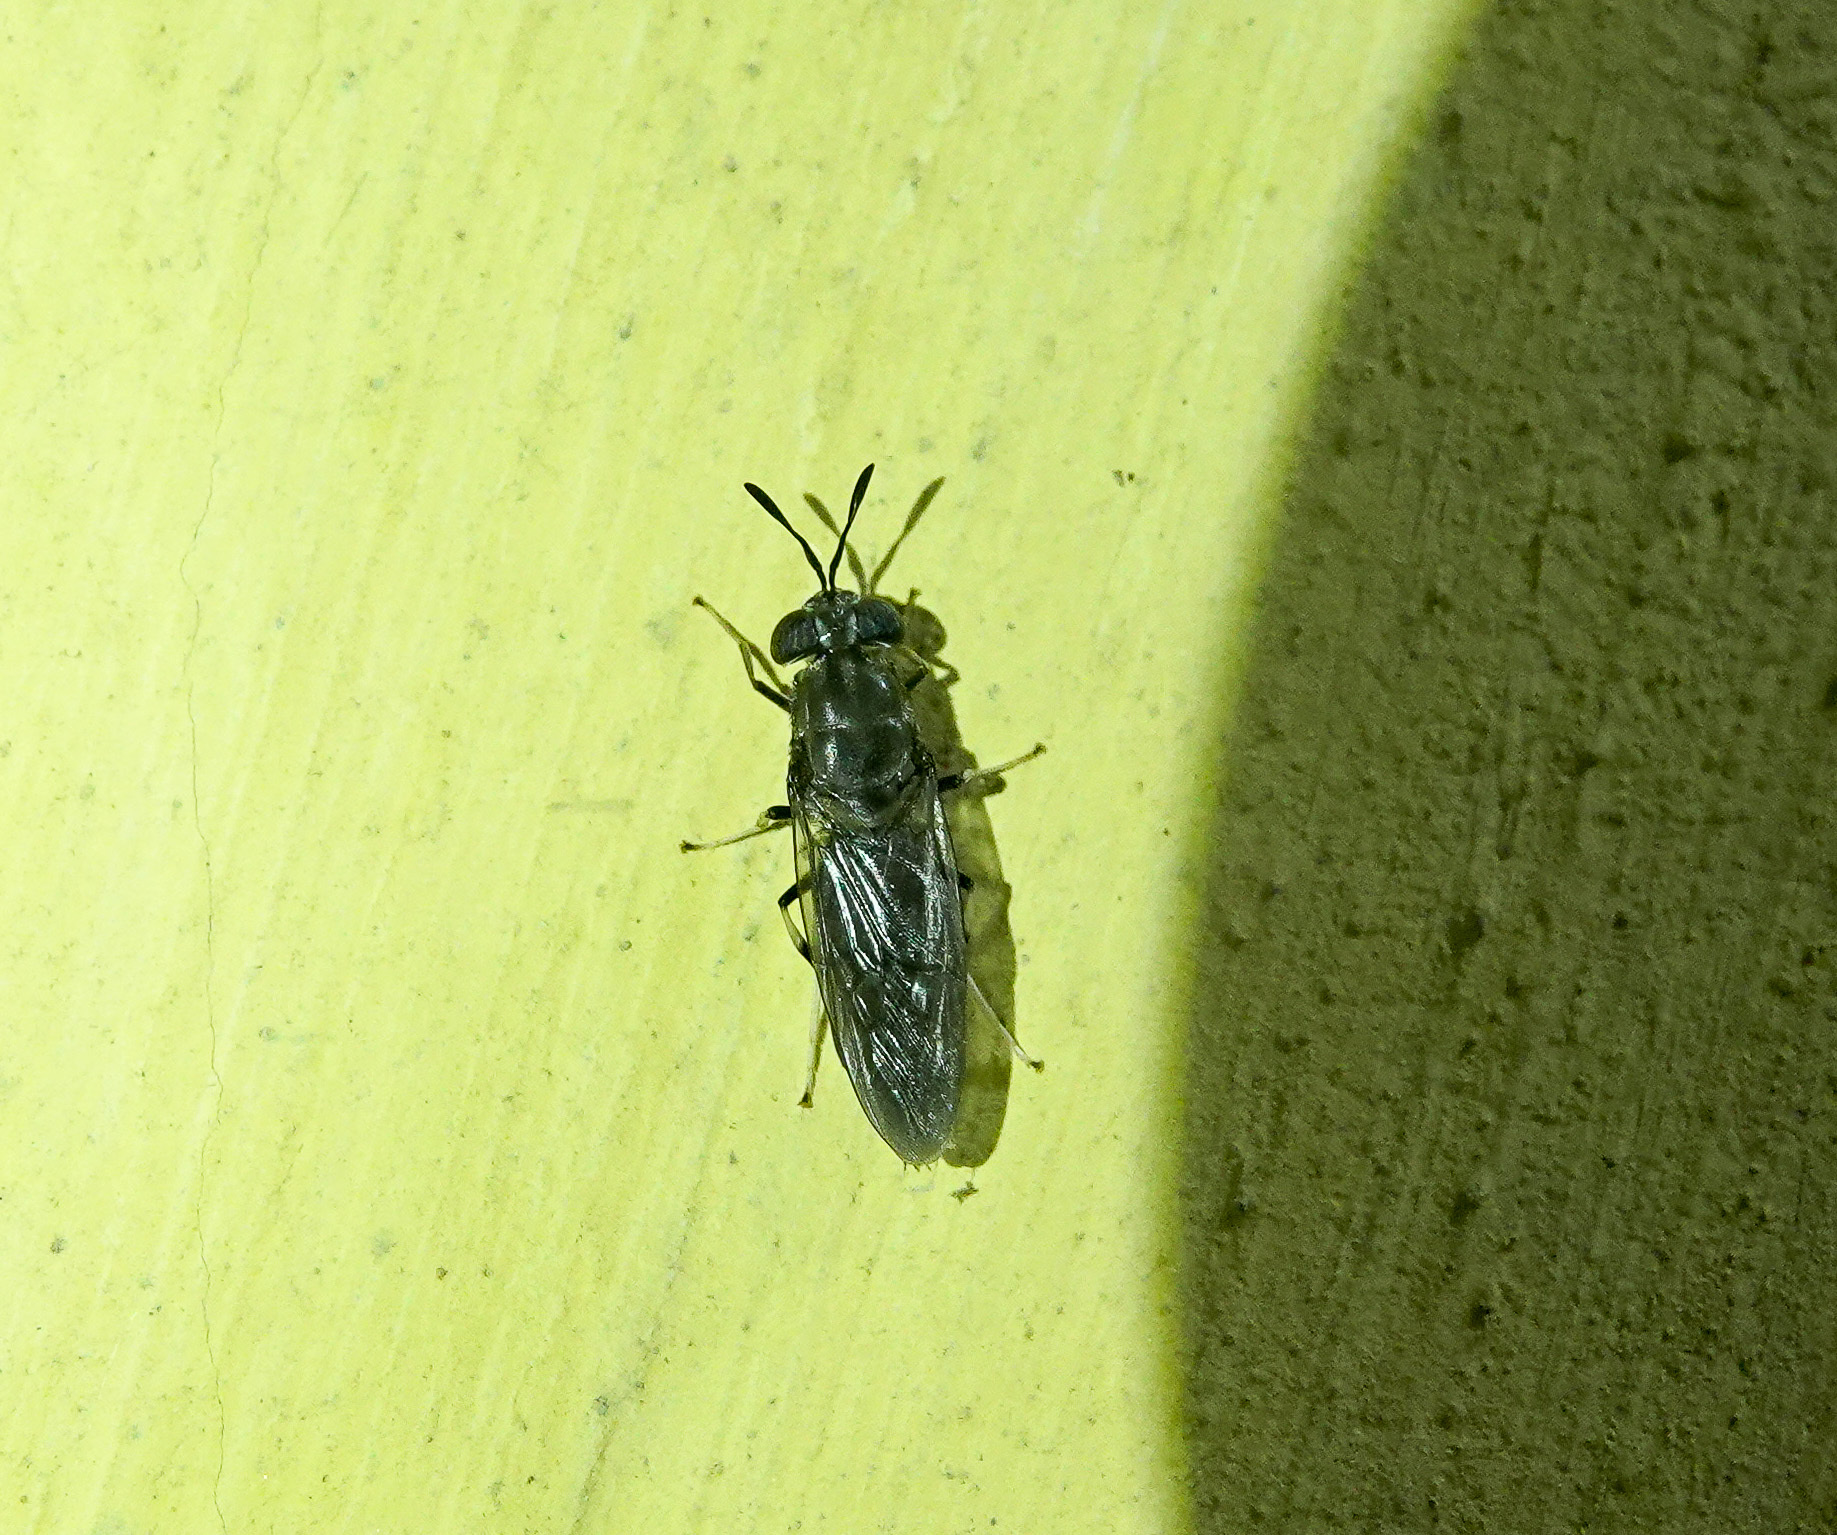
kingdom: Animalia
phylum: Arthropoda
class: Insecta
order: Diptera
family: Stratiomyidae
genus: Hermetia
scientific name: Hermetia illucens
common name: Black soldier fly
